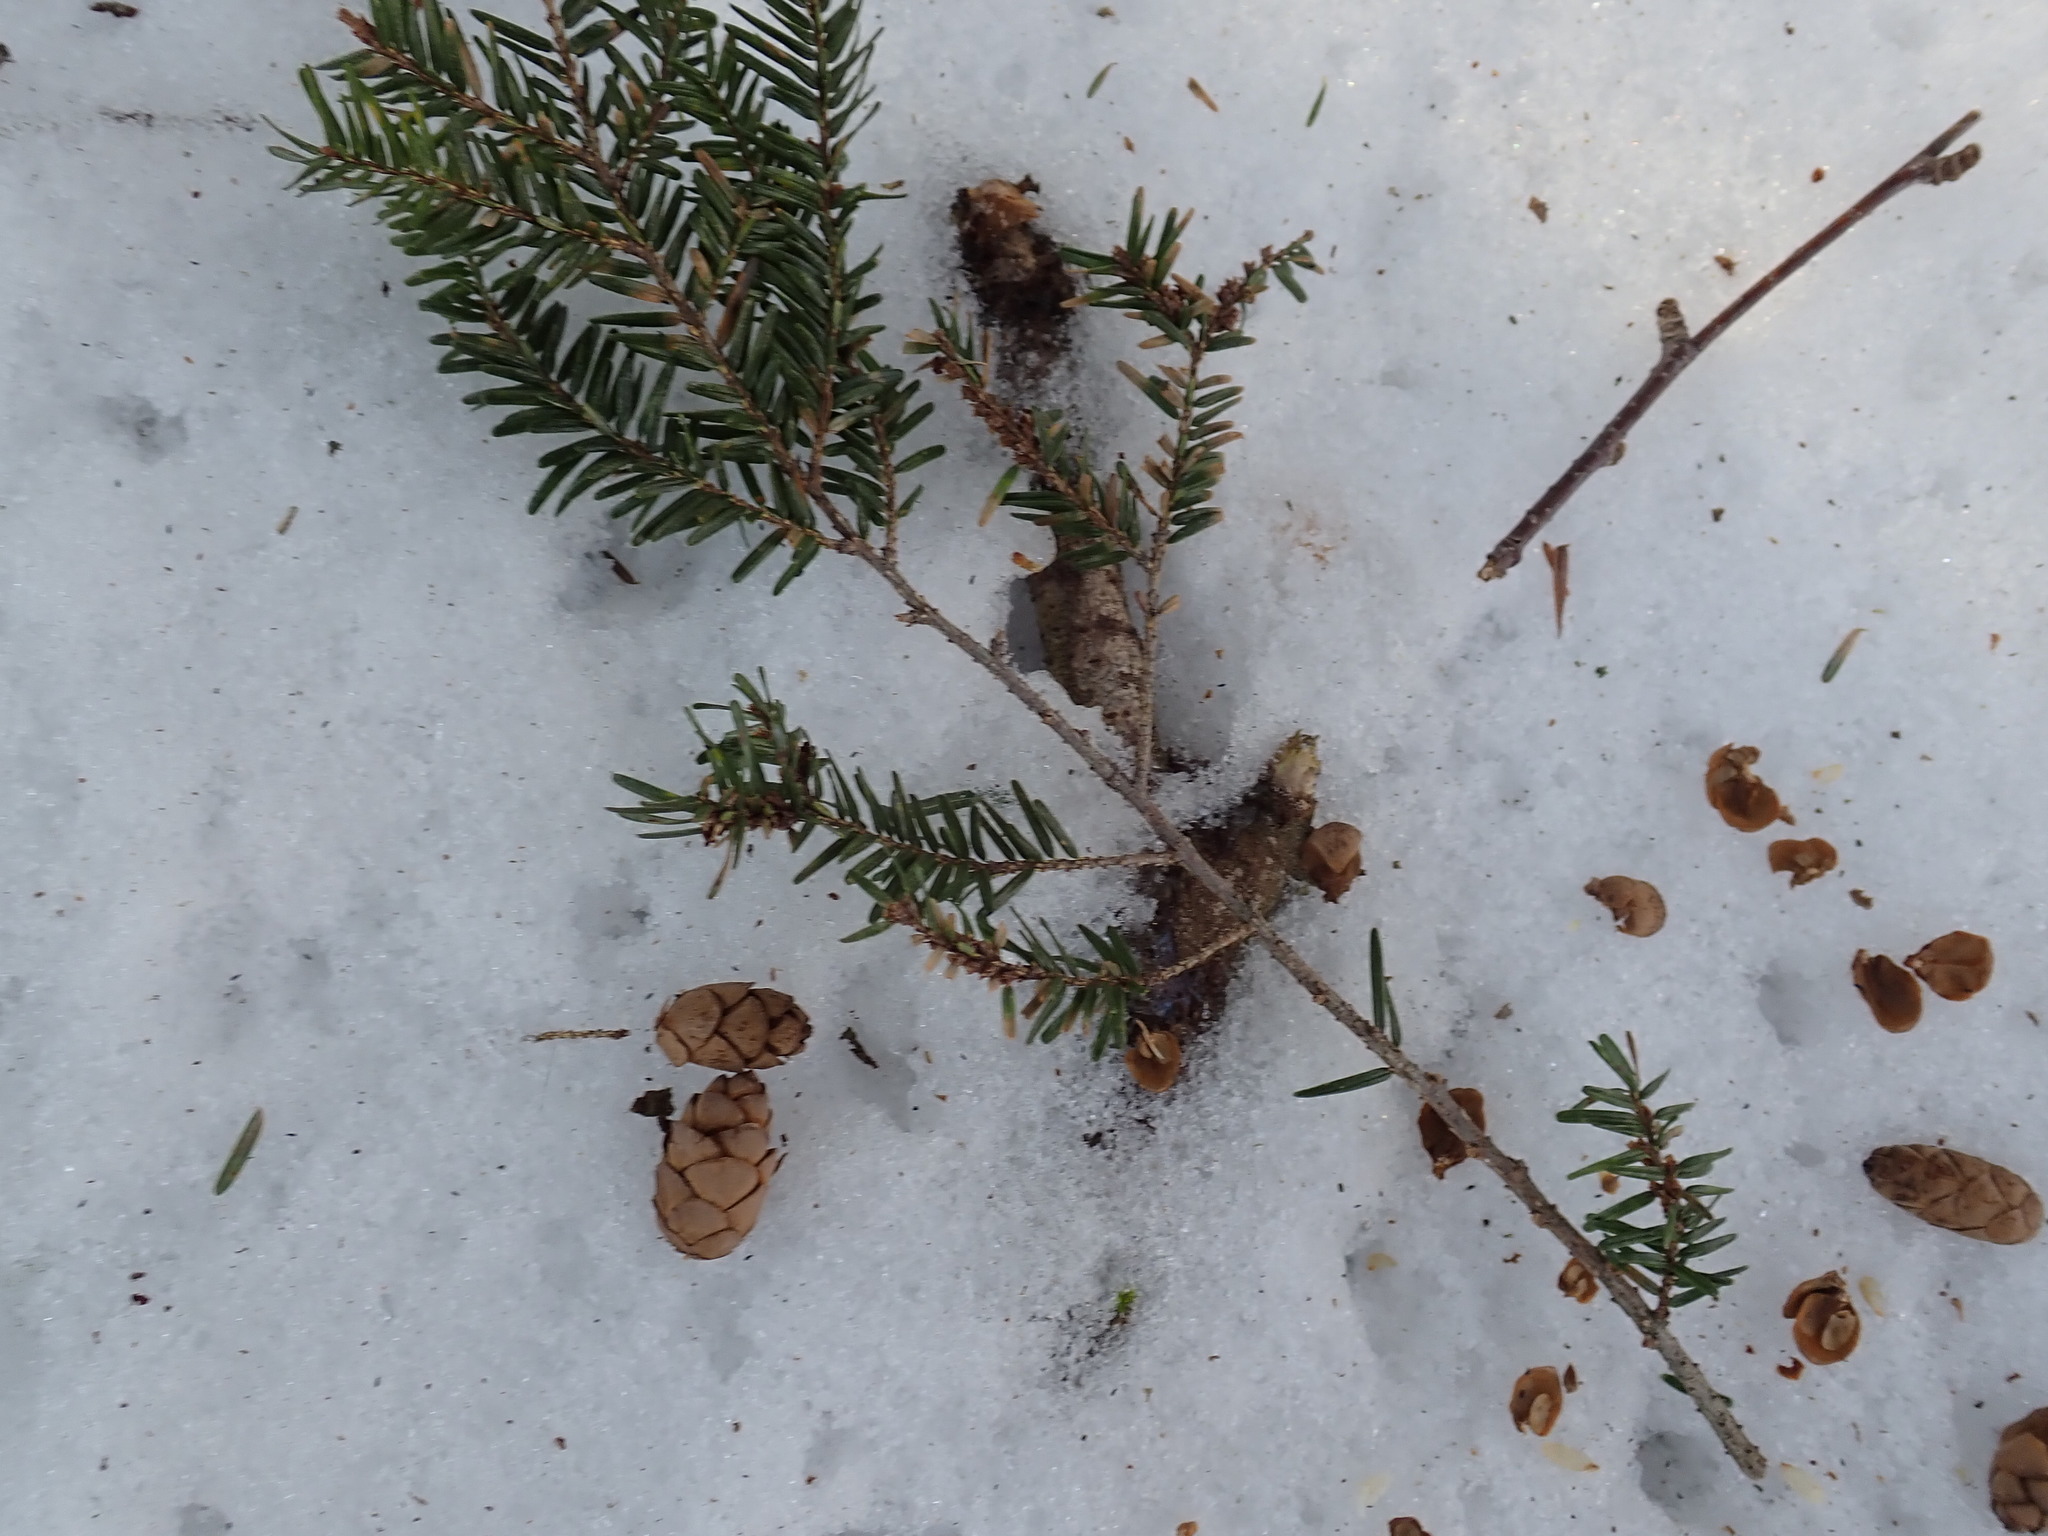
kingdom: Plantae
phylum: Tracheophyta
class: Pinopsida
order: Pinales
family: Pinaceae
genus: Tsuga
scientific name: Tsuga canadensis
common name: Eastern hemlock
